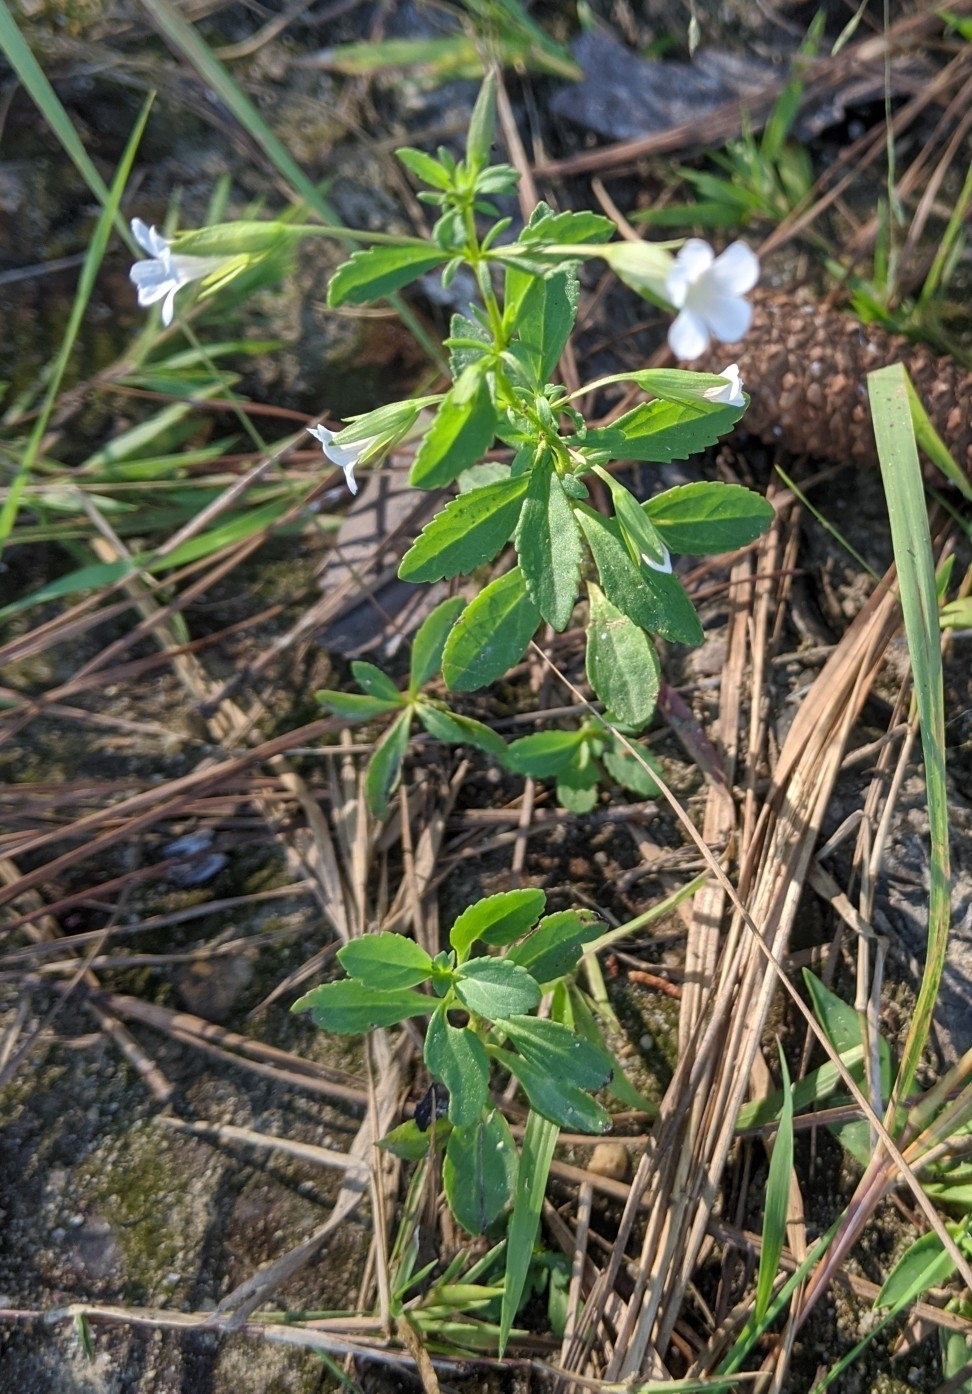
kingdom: Plantae
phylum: Tracheophyta
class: Magnoliopsida
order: Lamiales
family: Plantaginaceae
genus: Mecardonia
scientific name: Mecardonia acuminata
